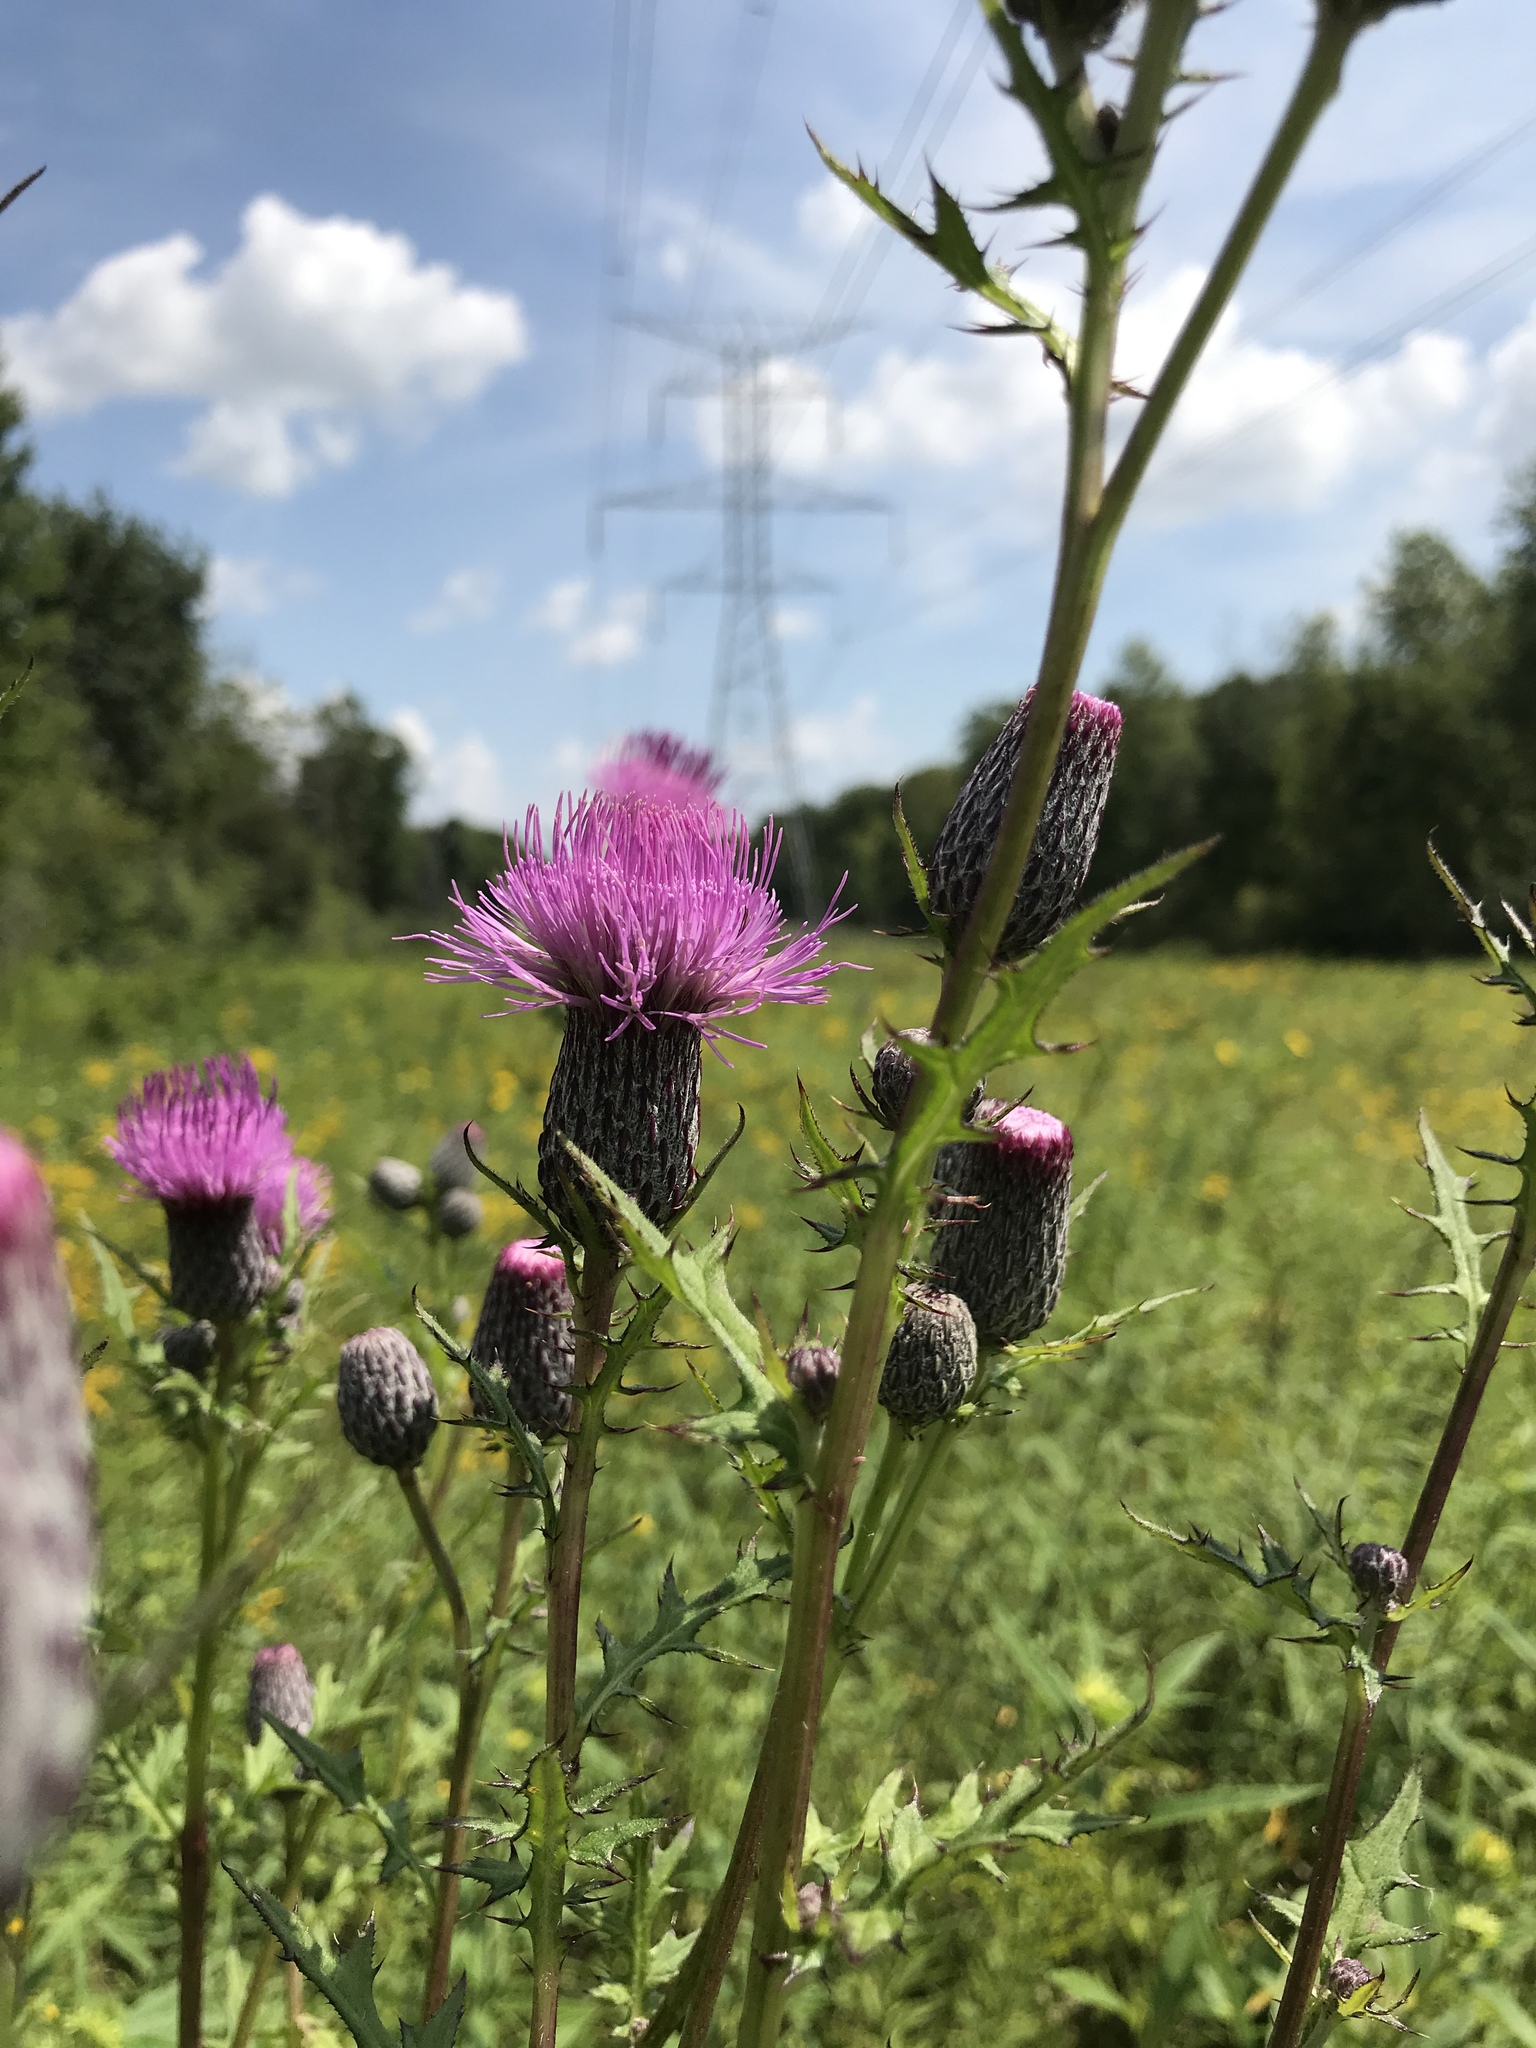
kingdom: Plantae
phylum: Tracheophyta
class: Magnoliopsida
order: Asterales
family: Asteraceae
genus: Cirsium
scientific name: Cirsium muticum
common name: Dunce-nettle
